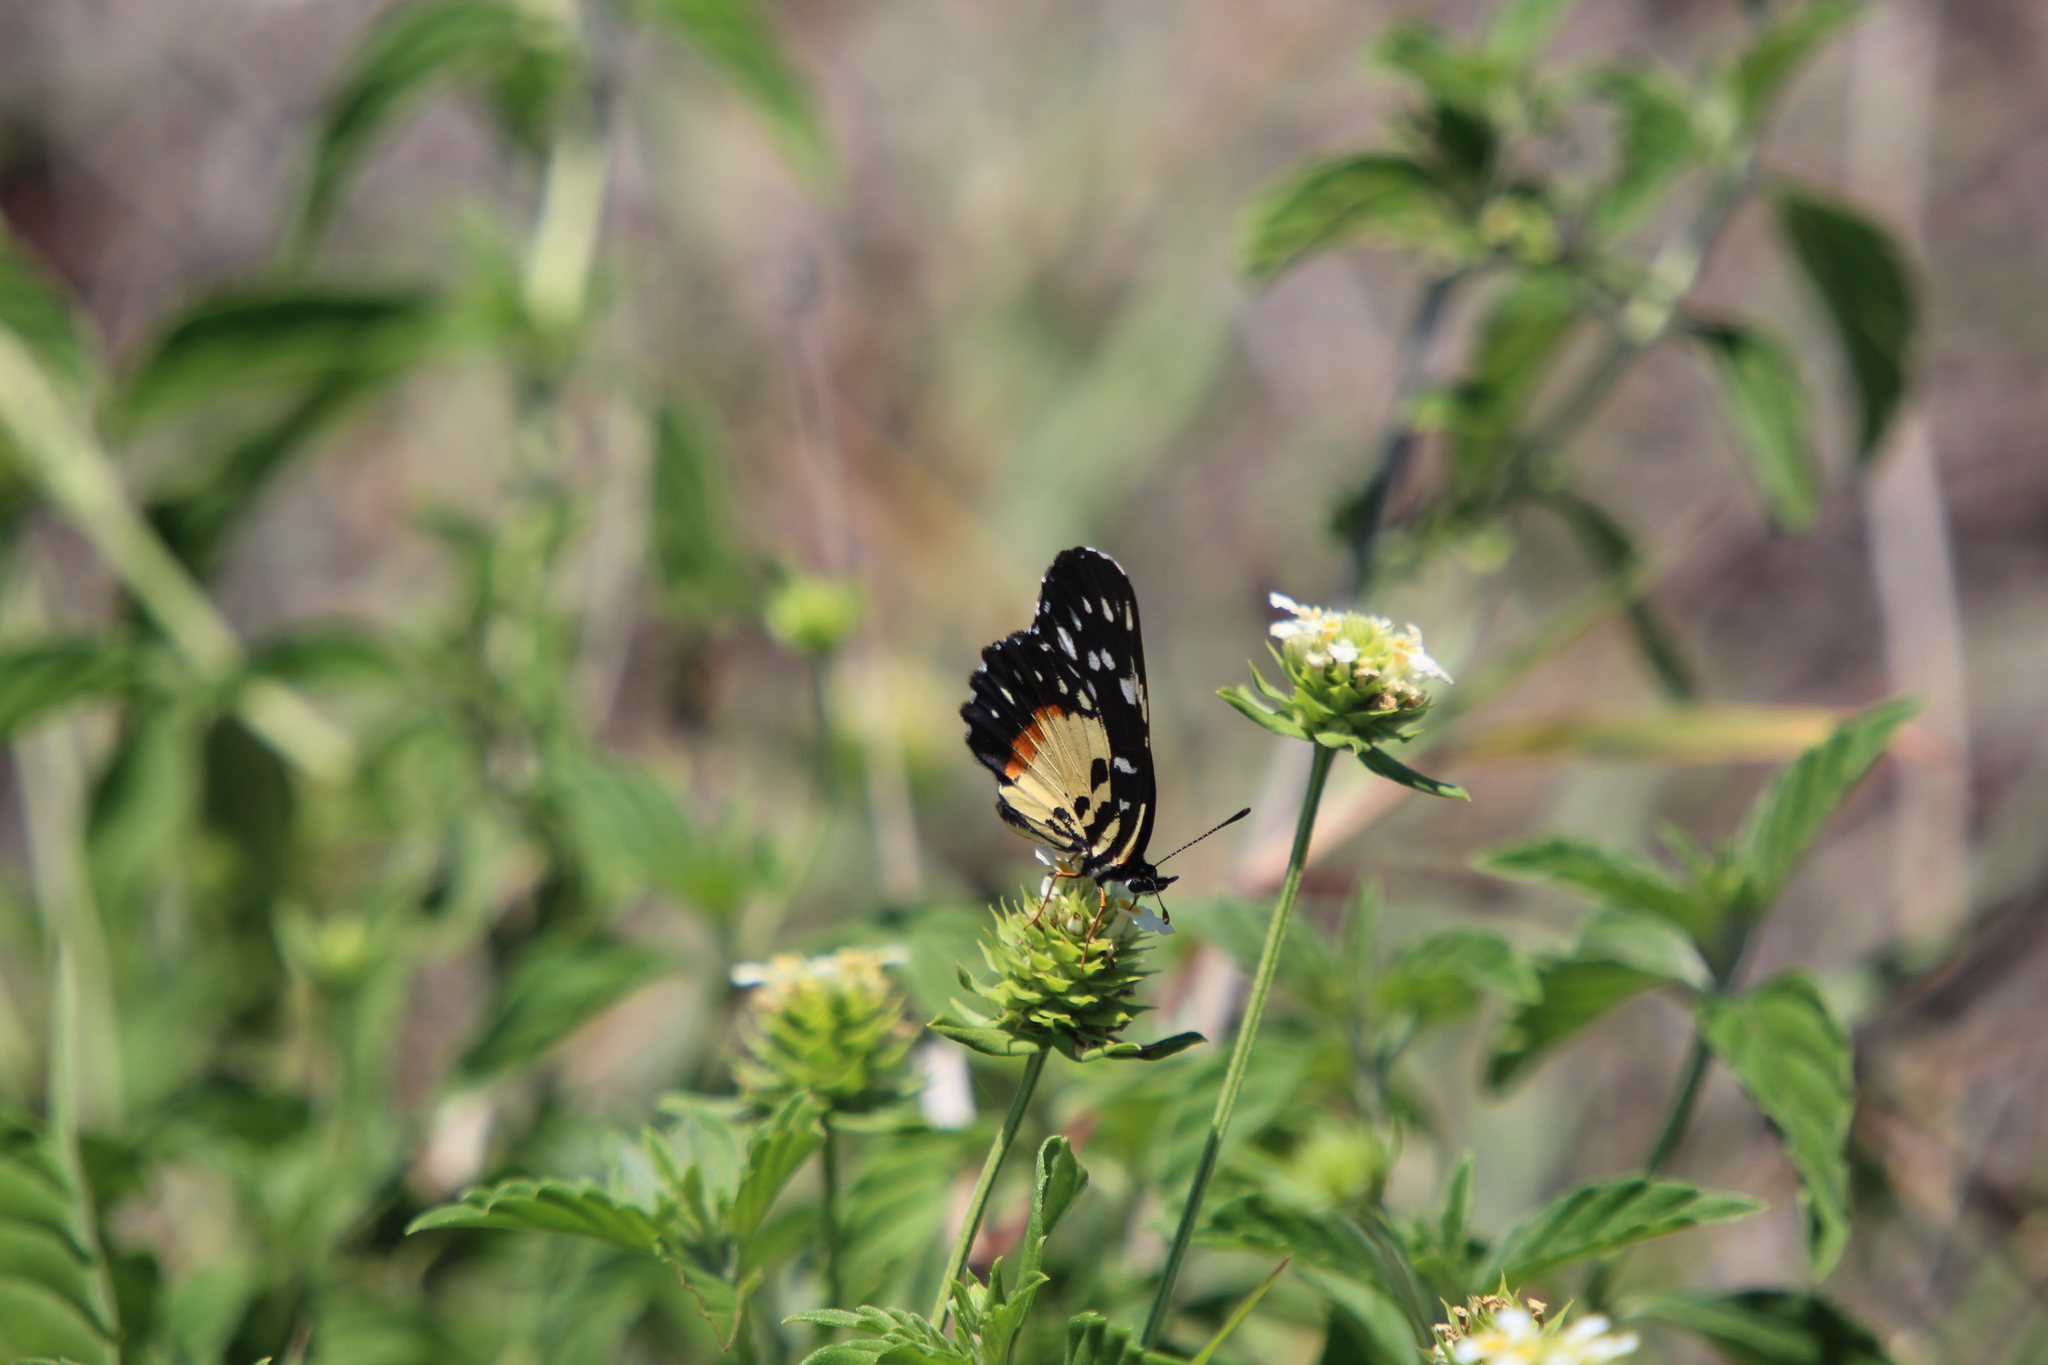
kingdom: Animalia
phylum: Arthropoda
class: Insecta
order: Lepidoptera
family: Nymphalidae
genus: Chlosyne
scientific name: Chlosyne rosita
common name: Rosita patch
